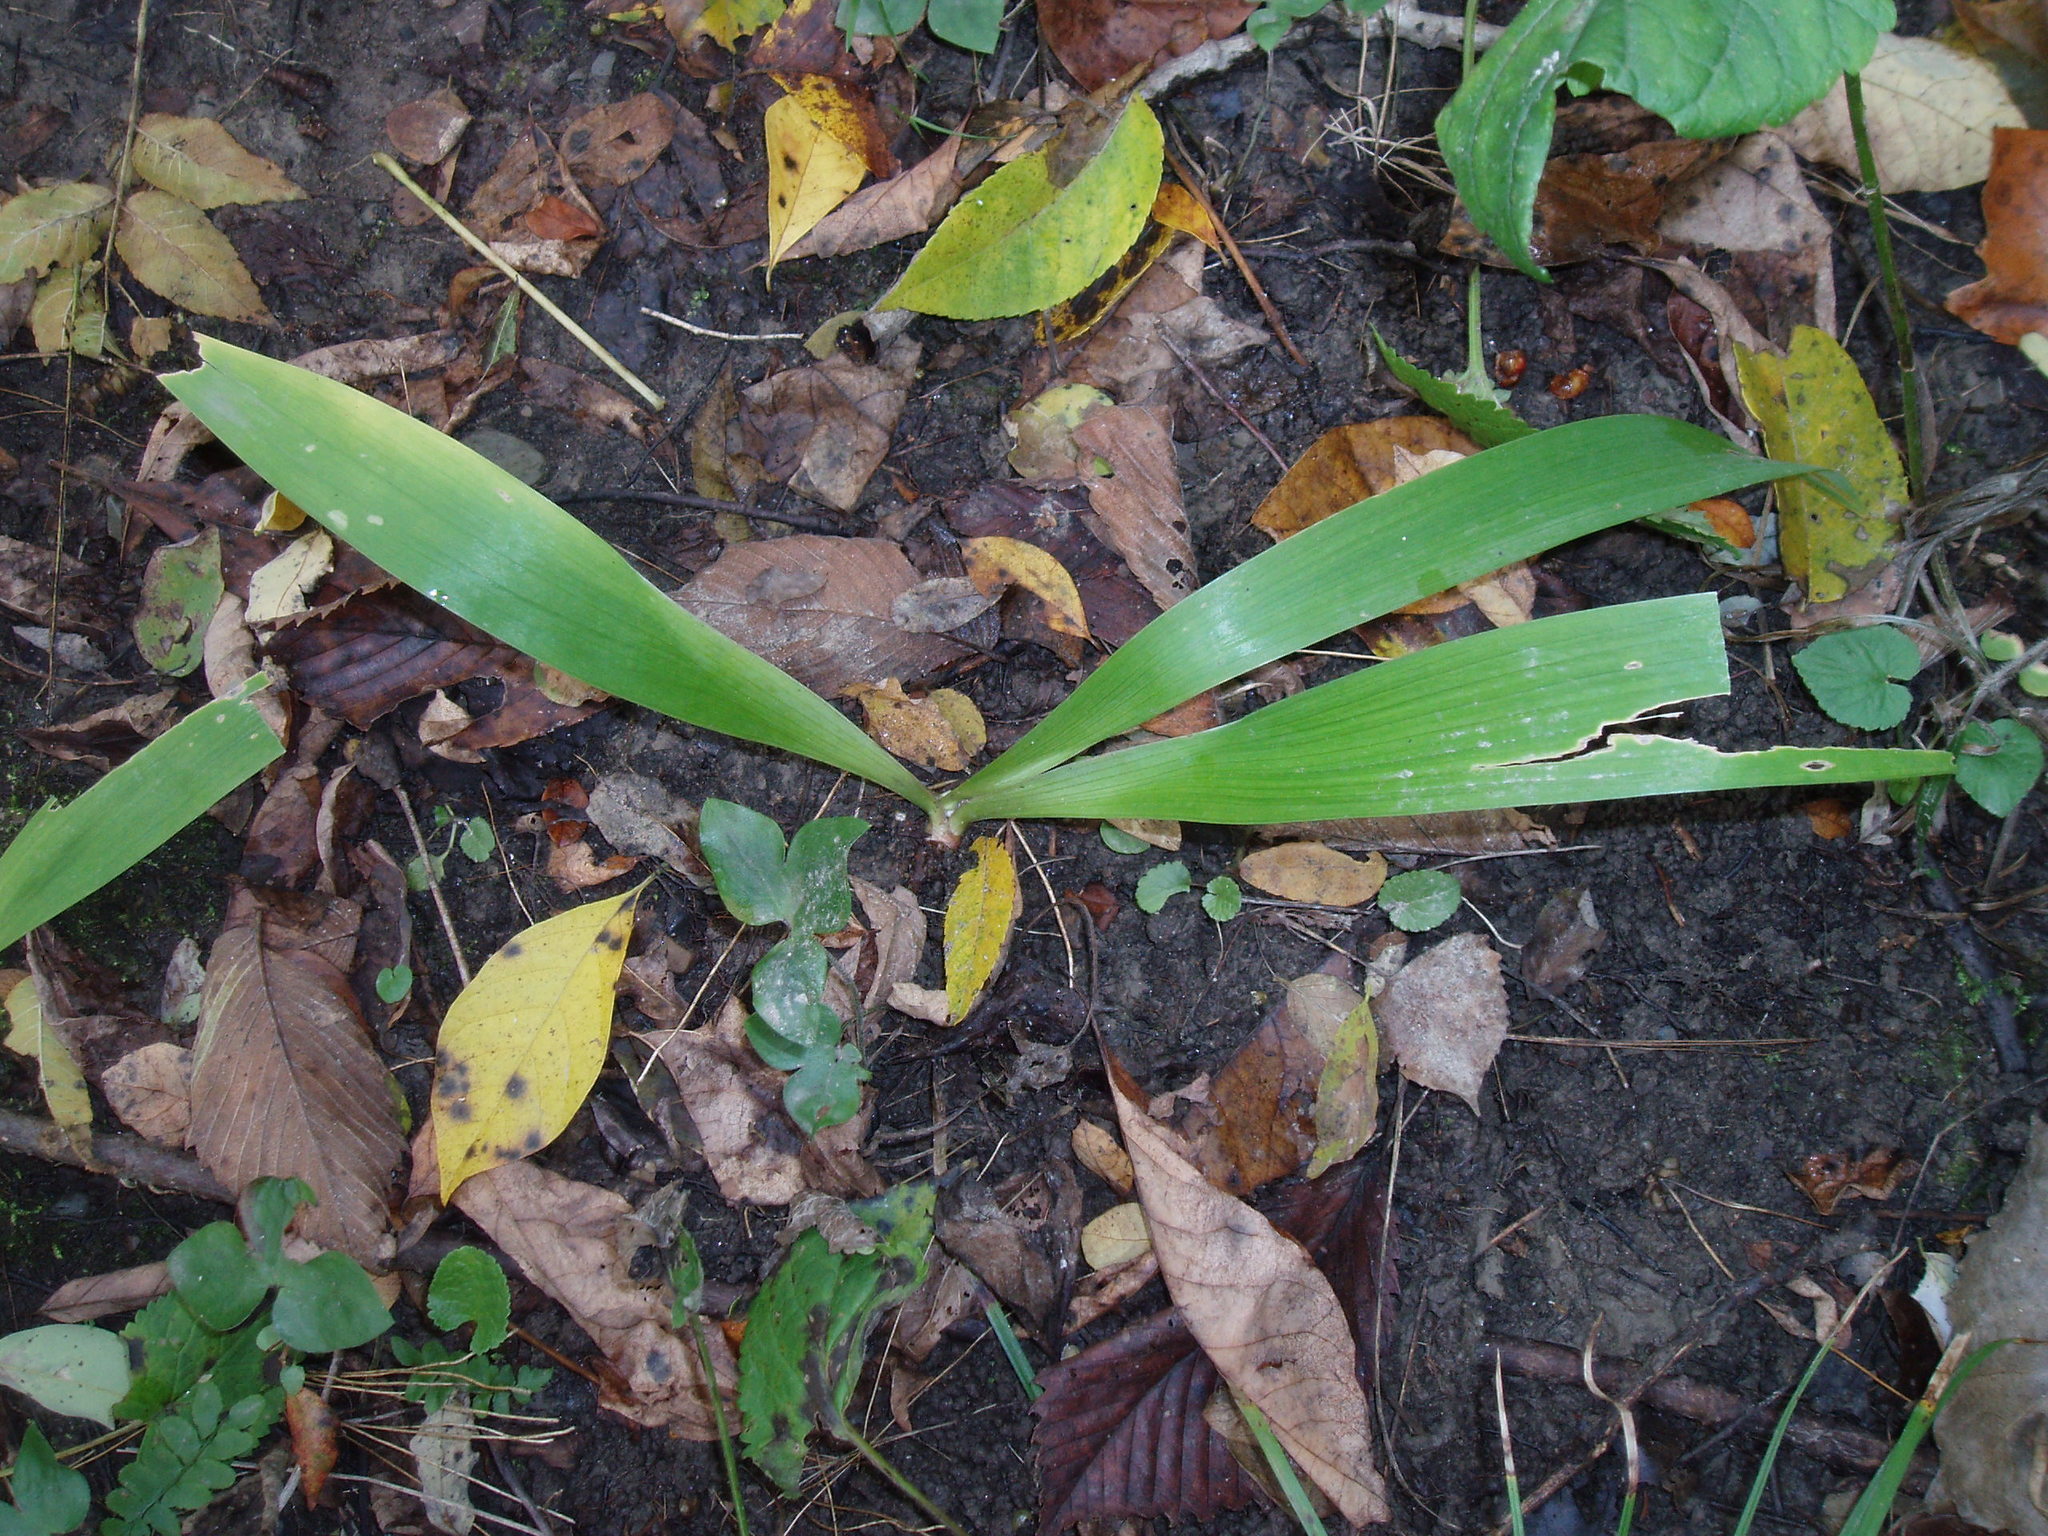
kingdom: Plantae
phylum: Tracheophyta
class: Liliopsida
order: Asparagales
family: Iridaceae
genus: Iris
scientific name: Iris cristata
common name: Crested iris
